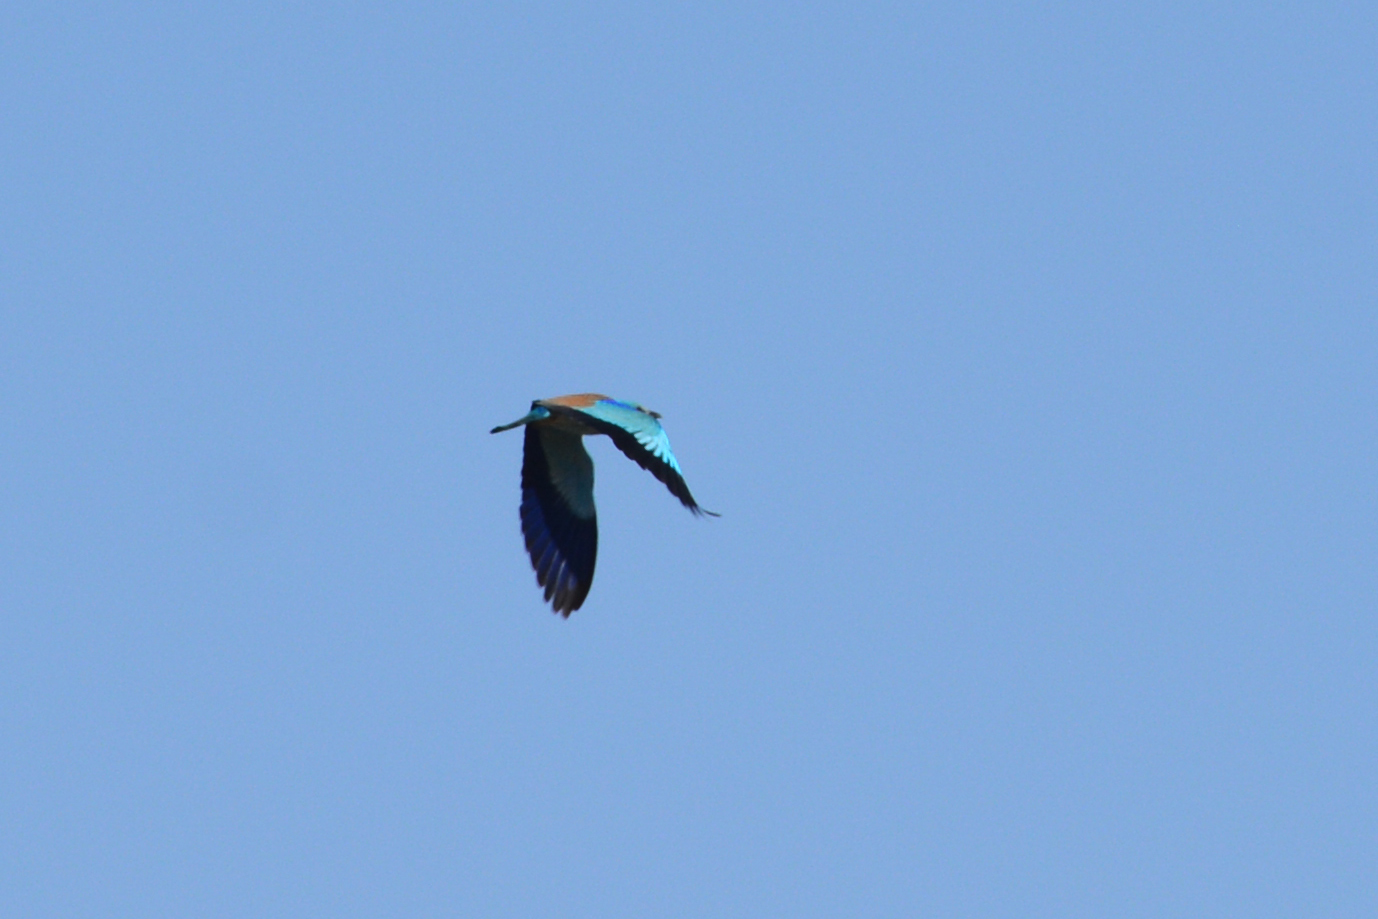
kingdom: Animalia
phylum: Chordata
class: Aves
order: Coraciiformes
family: Coraciidae
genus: Coracias
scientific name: Coracias garrulus
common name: European roller
